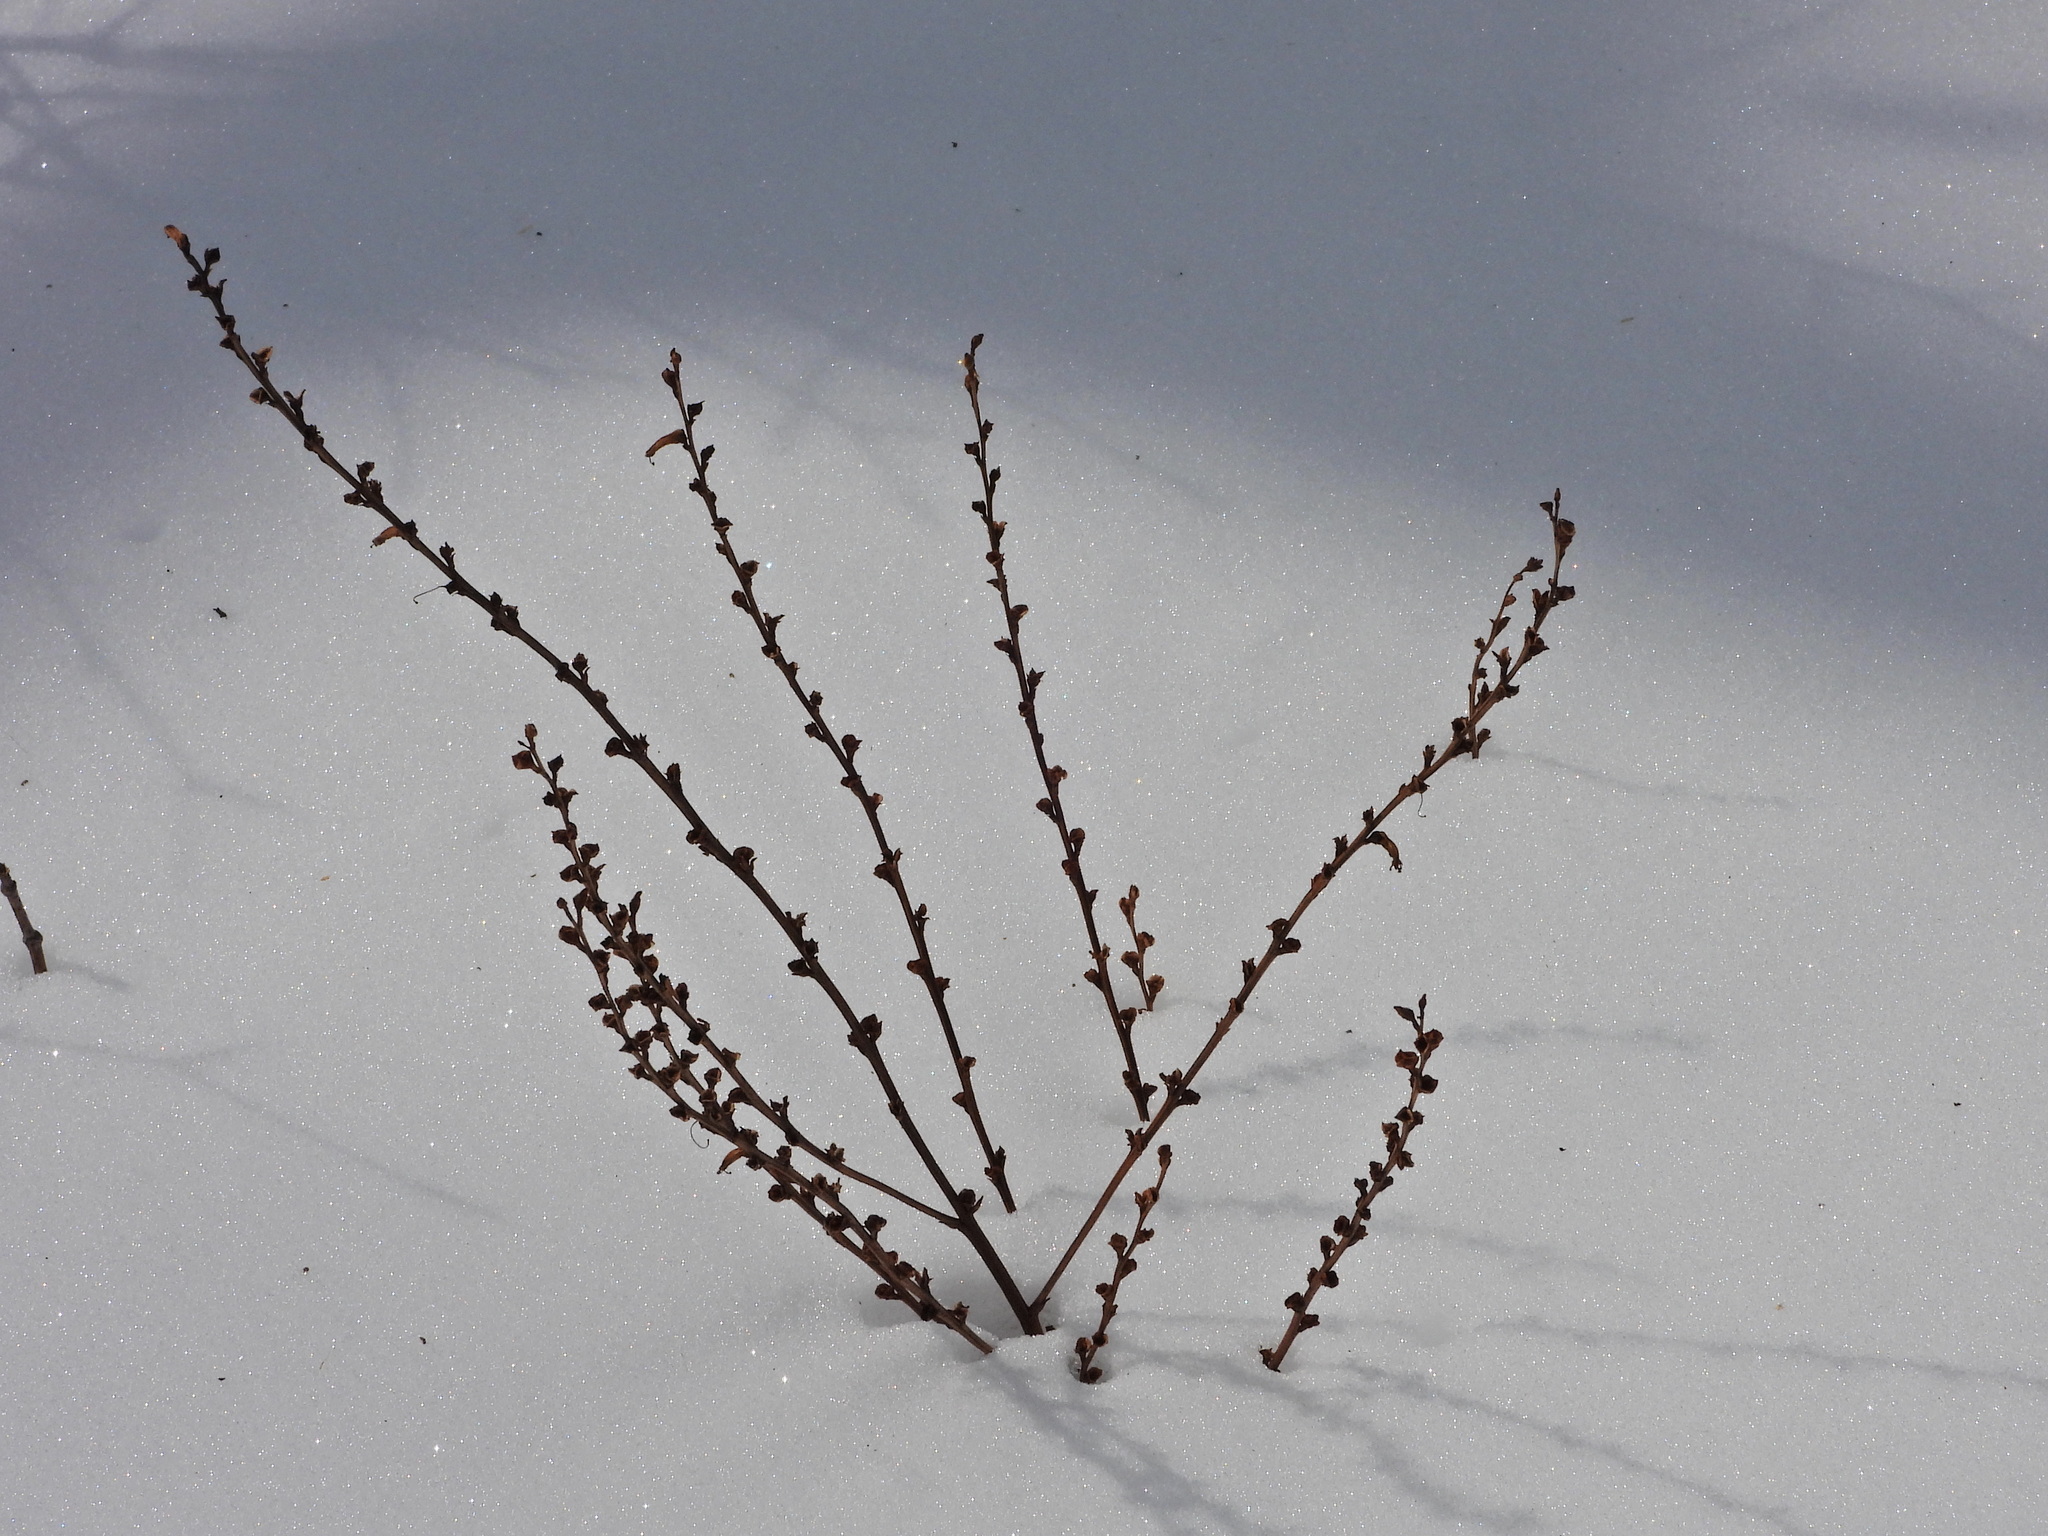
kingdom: Plantae
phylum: Tracheophyta
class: Magnoliopsida
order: Lamiales
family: Orobanchaceae
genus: Epifagus
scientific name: Epifagus virginiana
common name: Beechdrops
